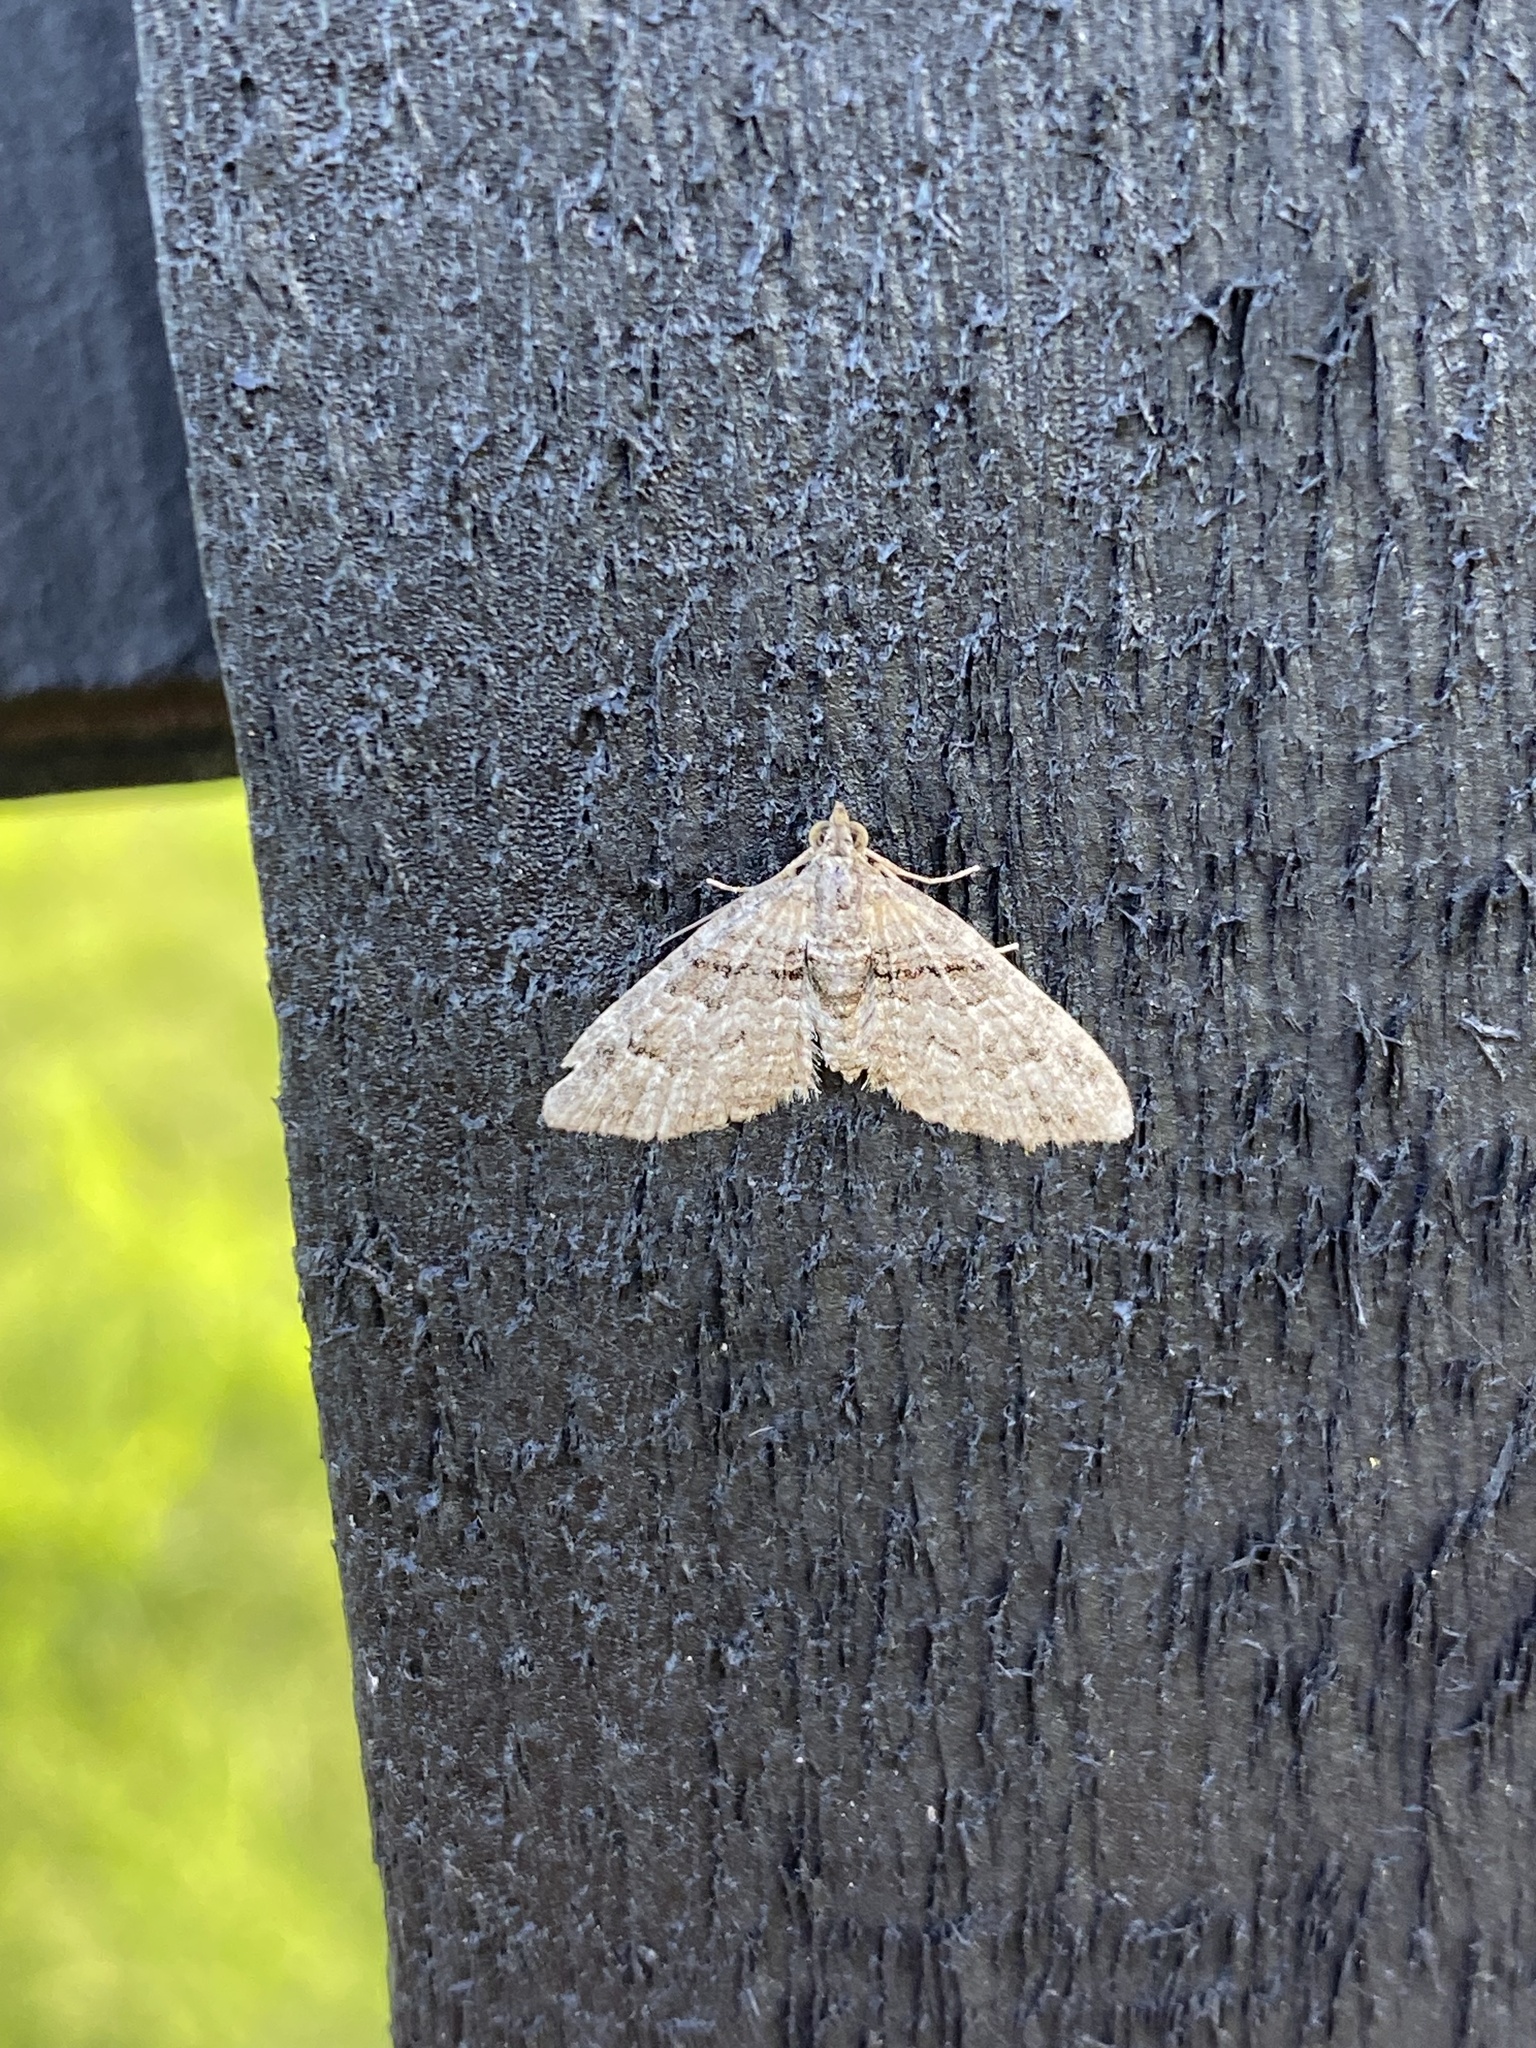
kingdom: Animalia
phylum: Arthropoda
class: Insecta
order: Lepidoptera
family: Geometridae
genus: Phrissogonus
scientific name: Phrissogonus laticostata
